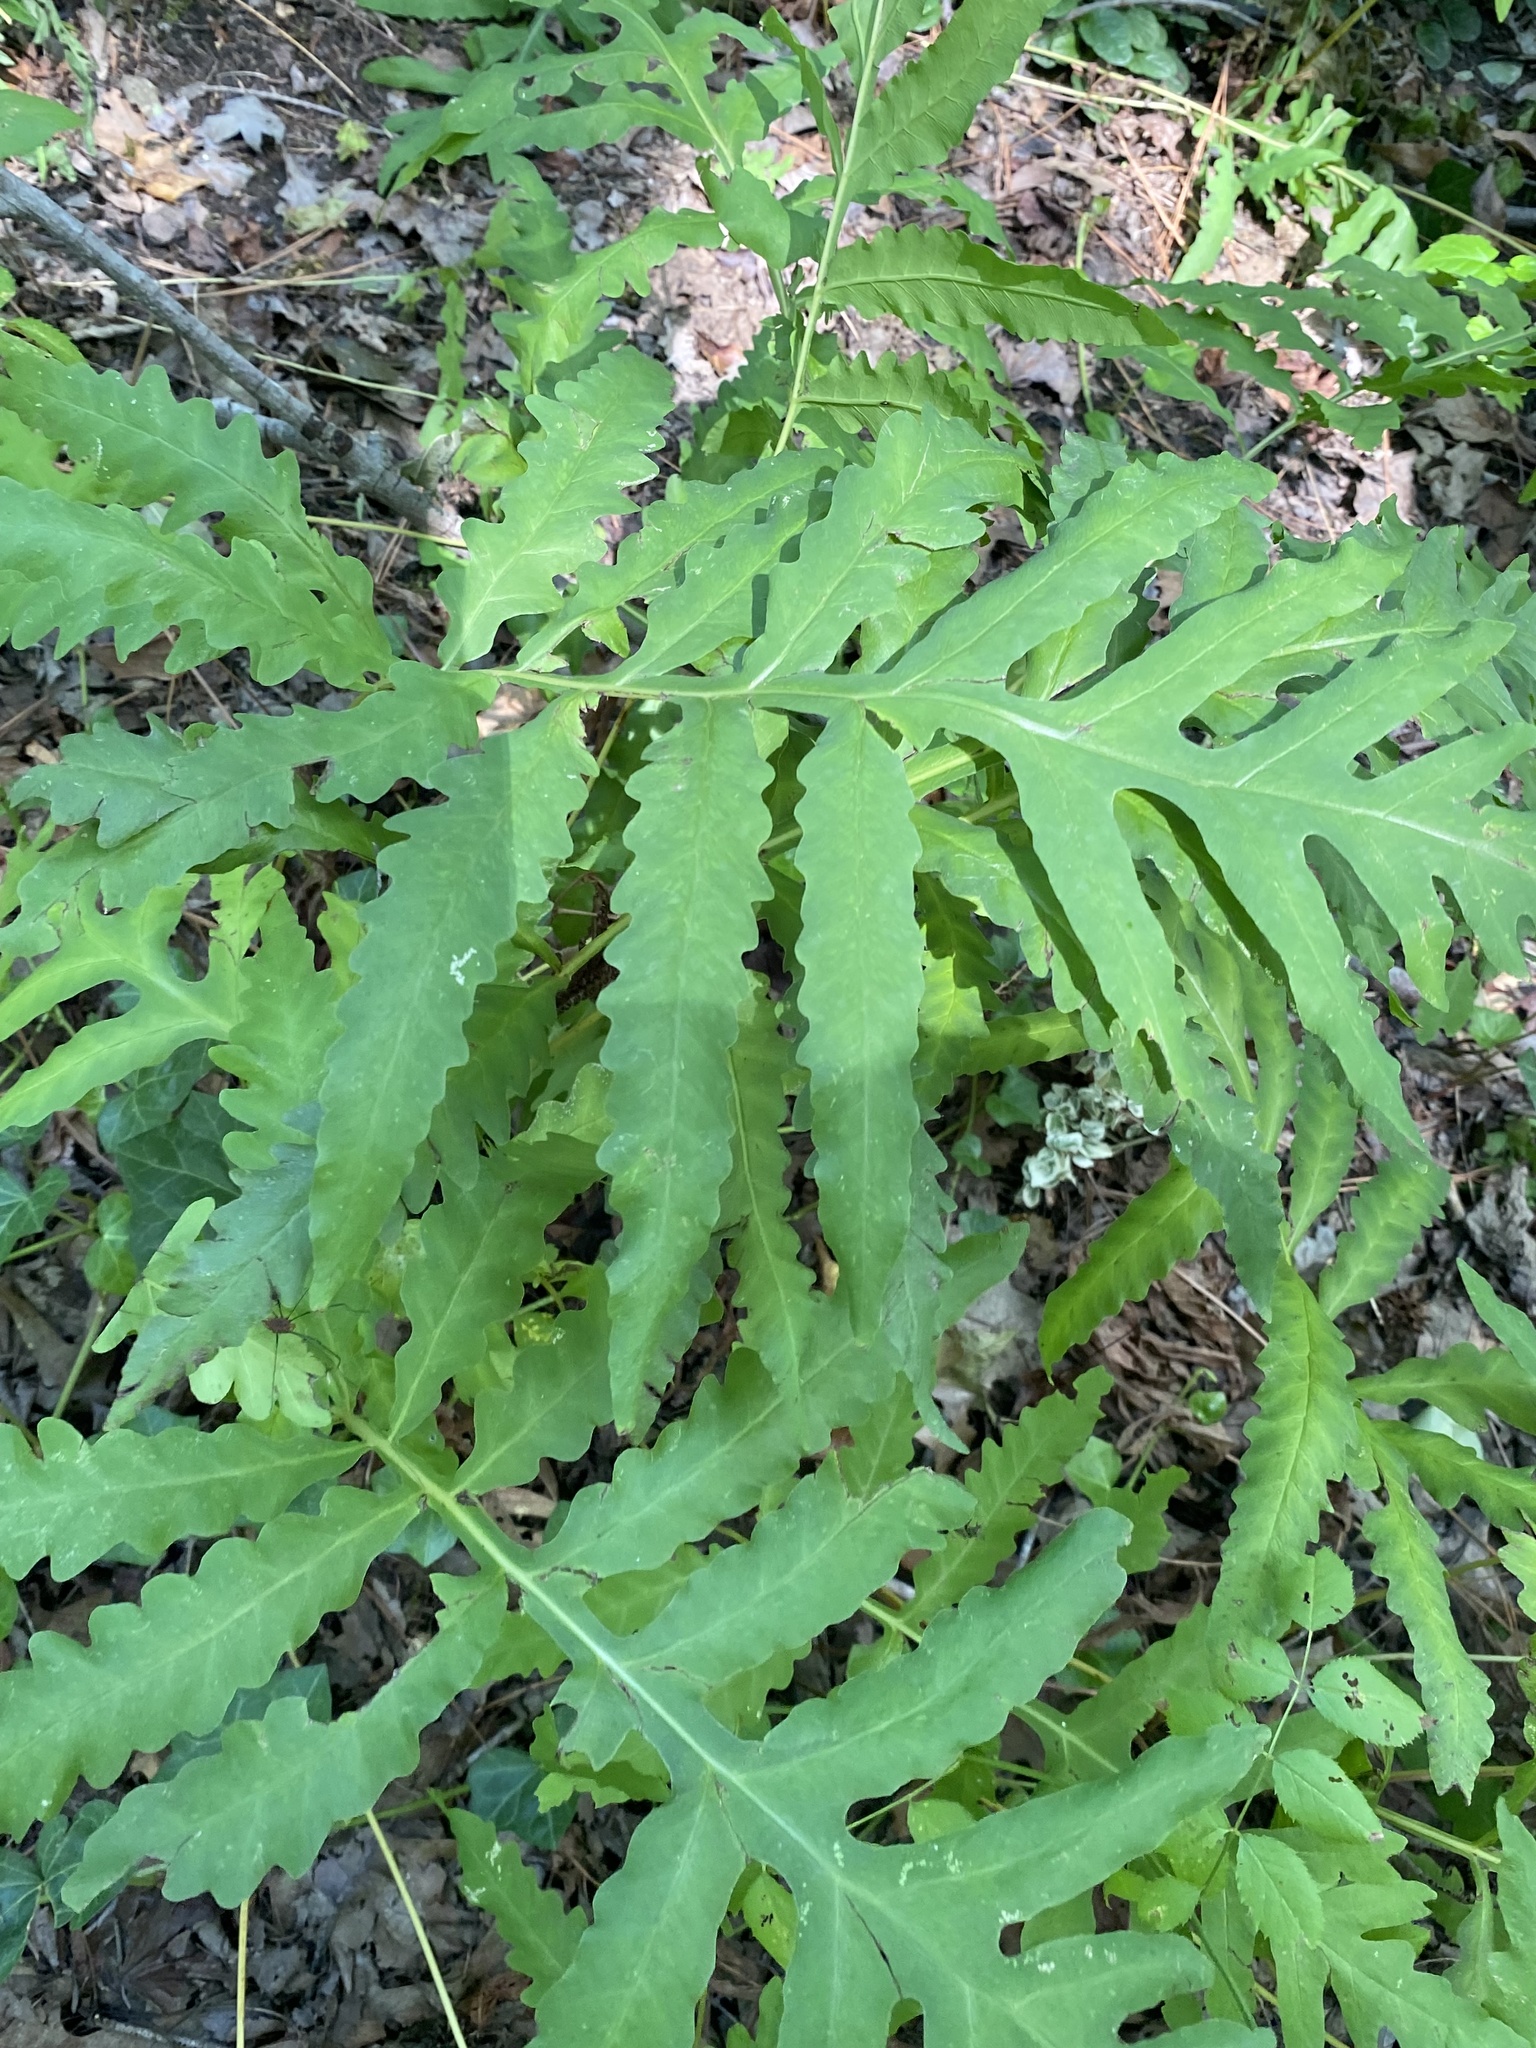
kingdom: Plantae
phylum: Tracheophyta
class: Polypodiopsida
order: Polypodiales
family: Onocleaceae
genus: Onoclea
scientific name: Onoclea sensibilis
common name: Sensitive fern
